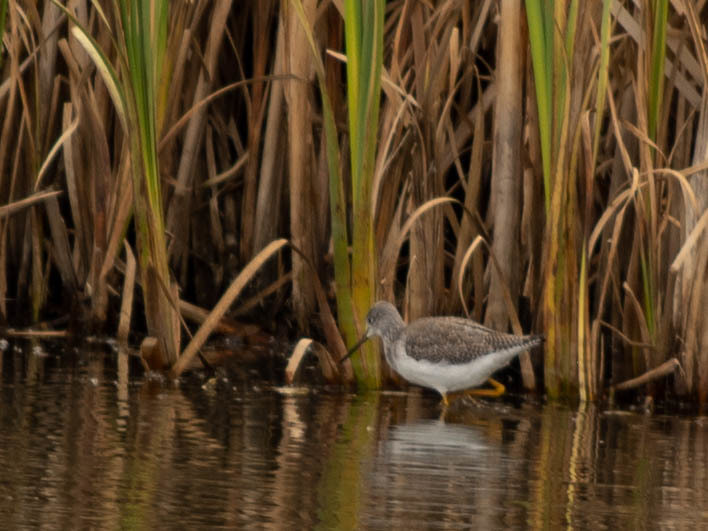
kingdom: Animalia
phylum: Chordata
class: Aves
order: Charadriiformes
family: Scolopacidae
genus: Tringa
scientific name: Tringa melanoleuca
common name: Greater yellowlegs
